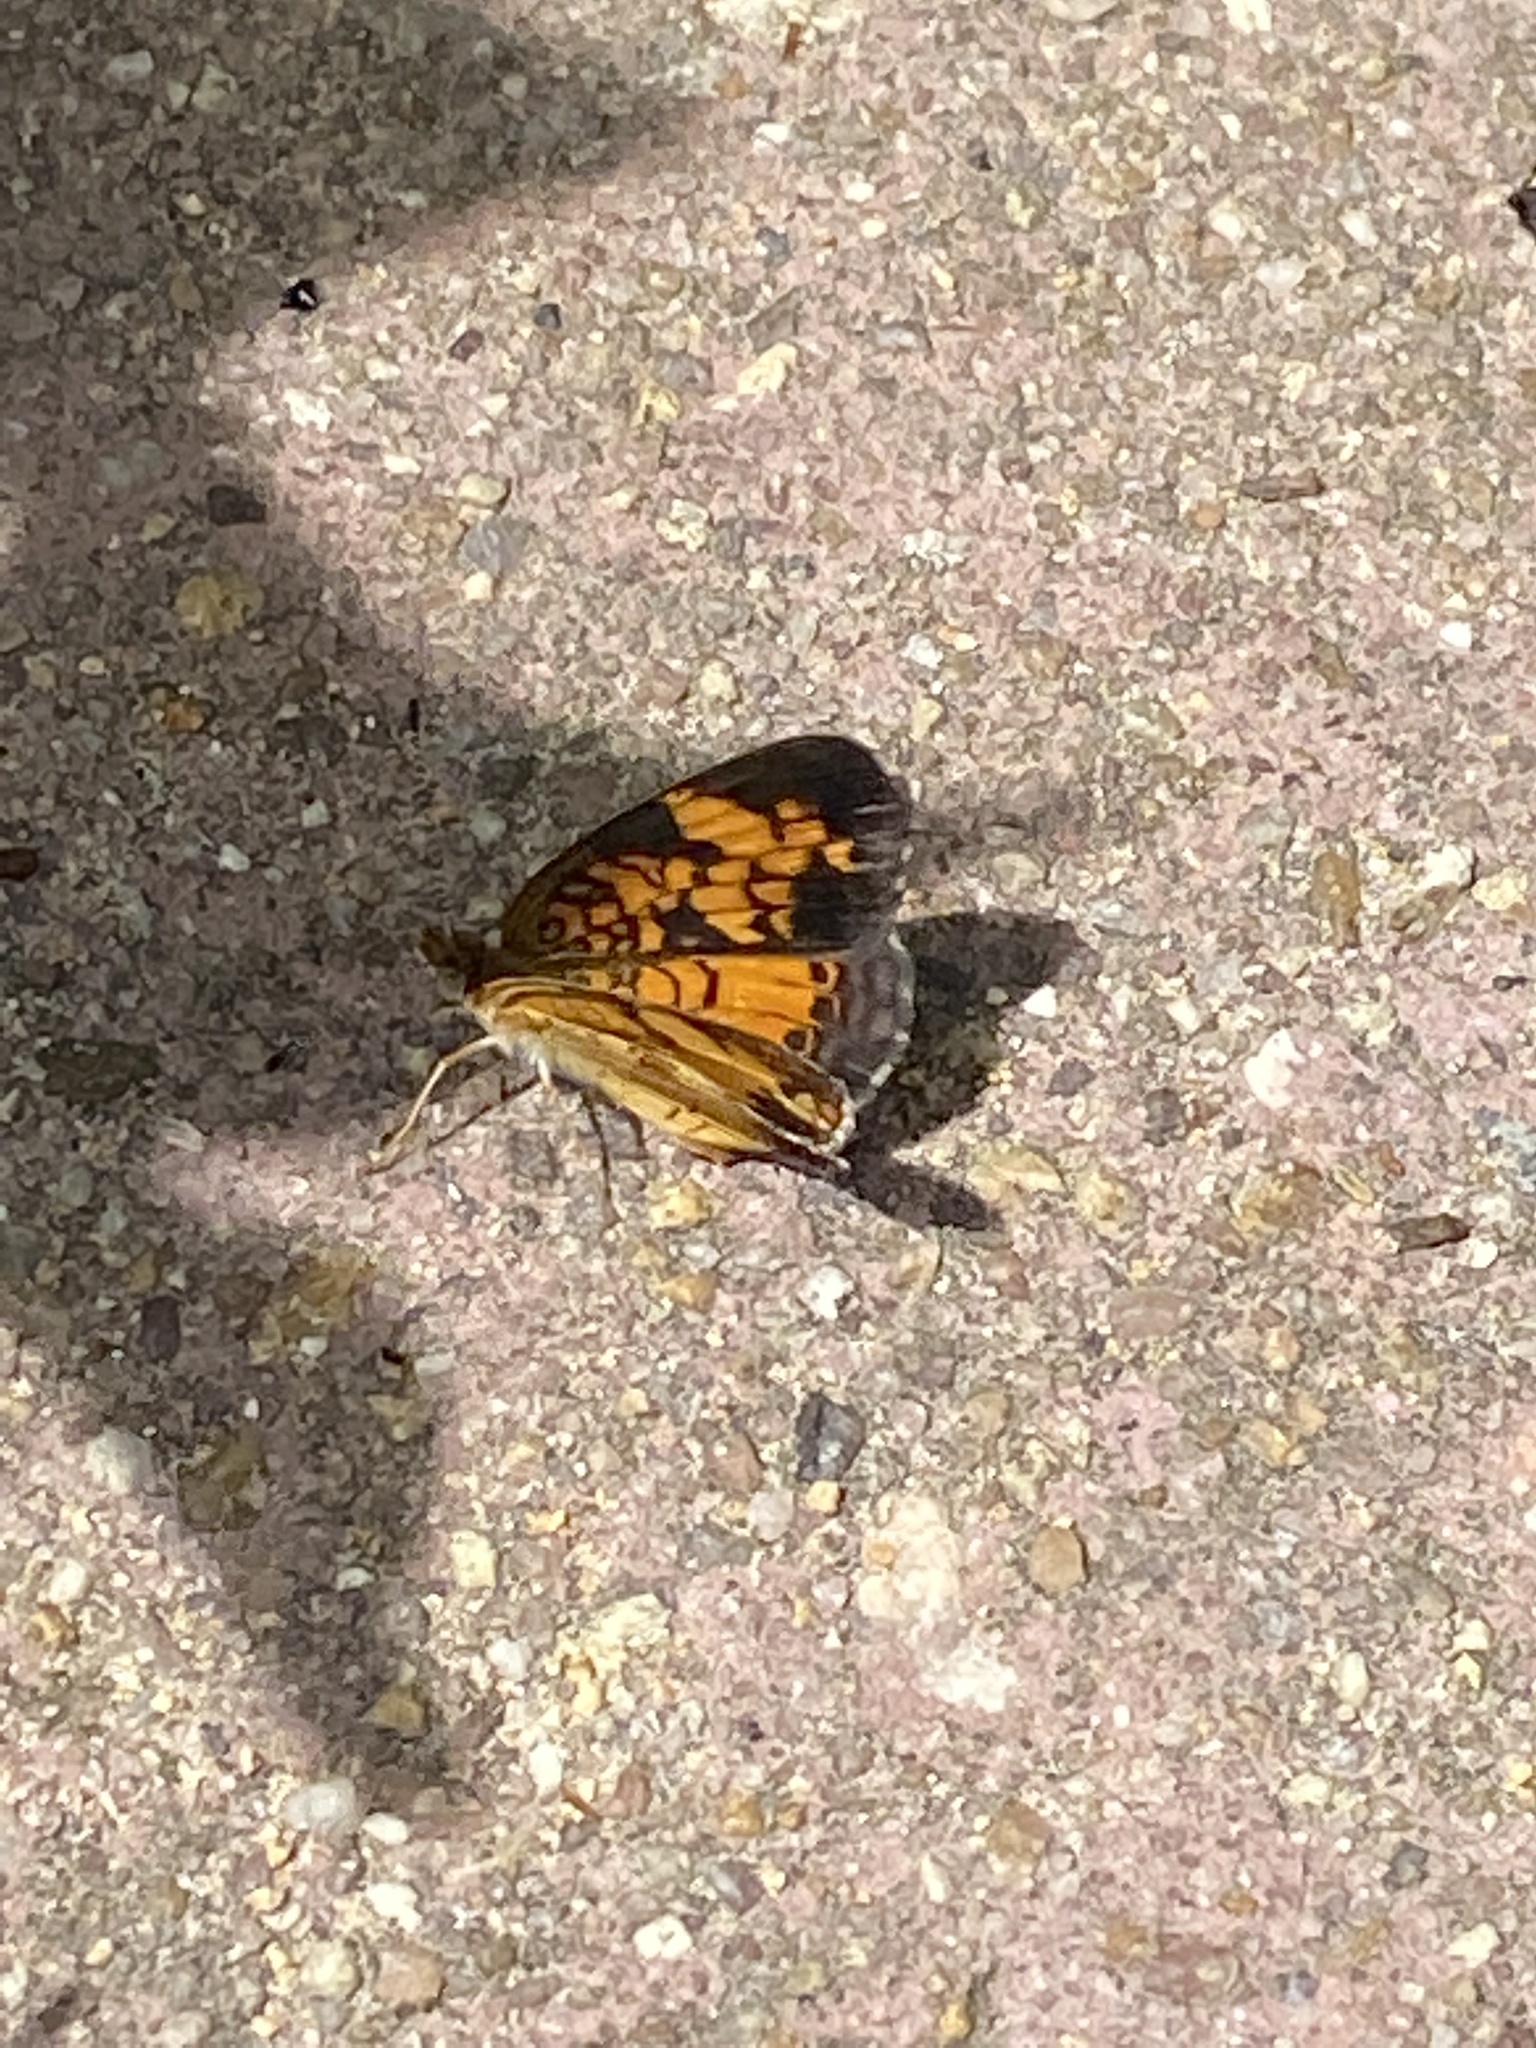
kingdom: Animalia
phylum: Arthropoda
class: Insecta
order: Lepidoptera
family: Nymphalidae
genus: Phyciodes
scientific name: Phyciodes tharos
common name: Pearl crescent
